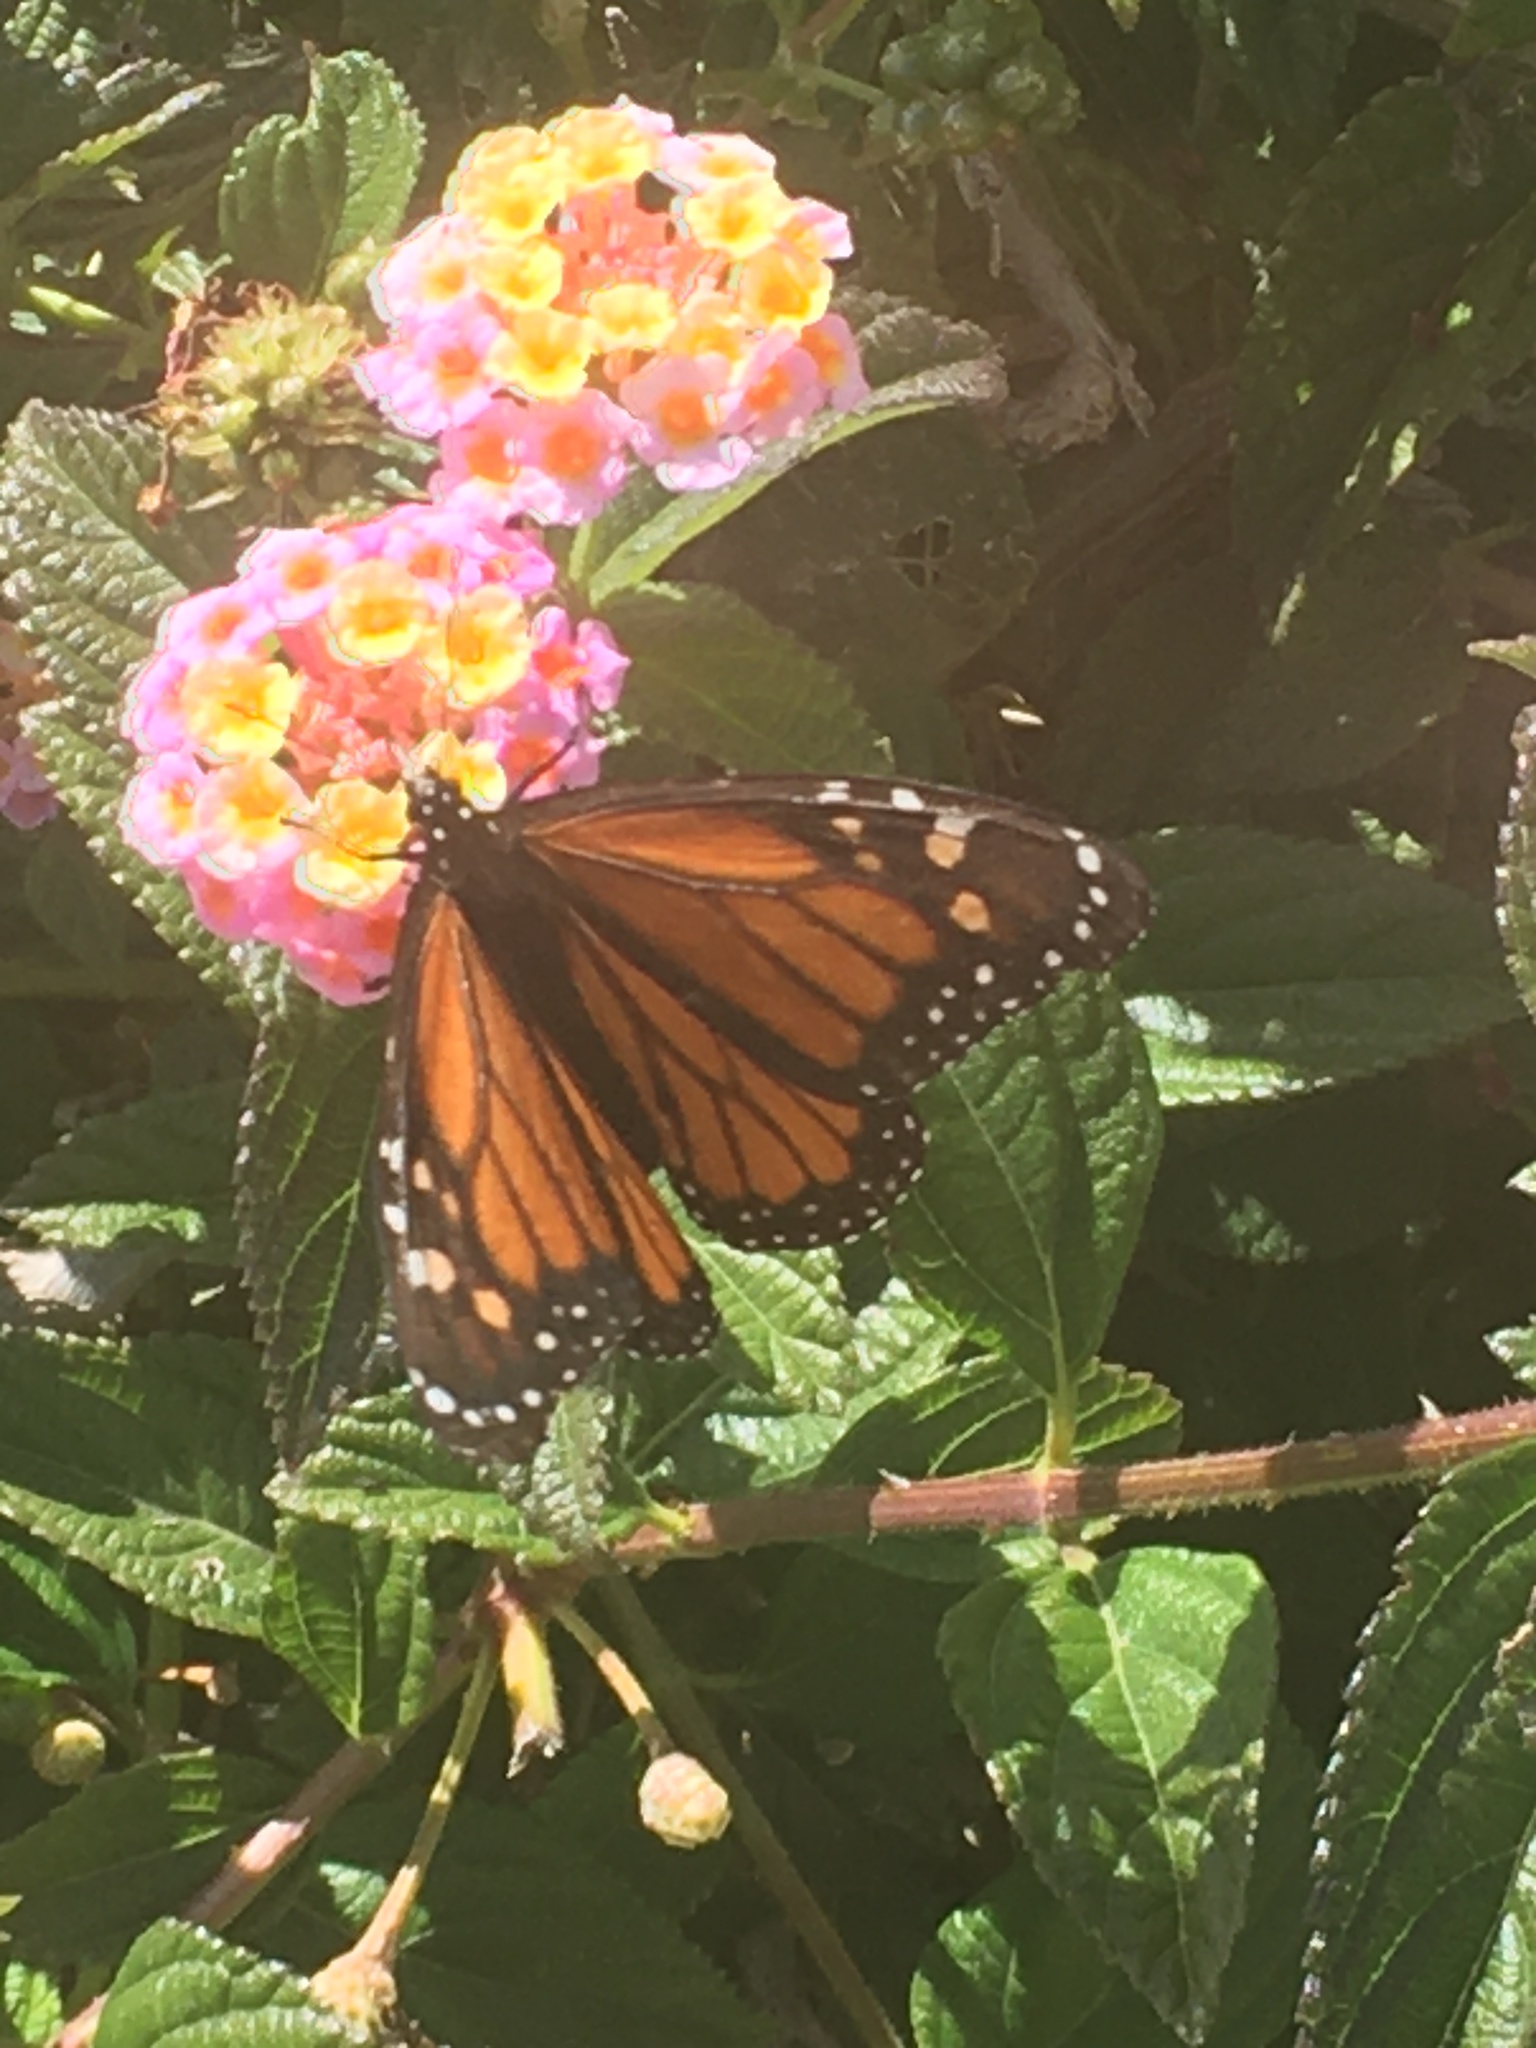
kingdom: Animalia
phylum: Arthropoda
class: Insecta
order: Lepidoptera
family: Nymphalidae
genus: Danaus
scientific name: Danaus plexippus
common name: Monarch
